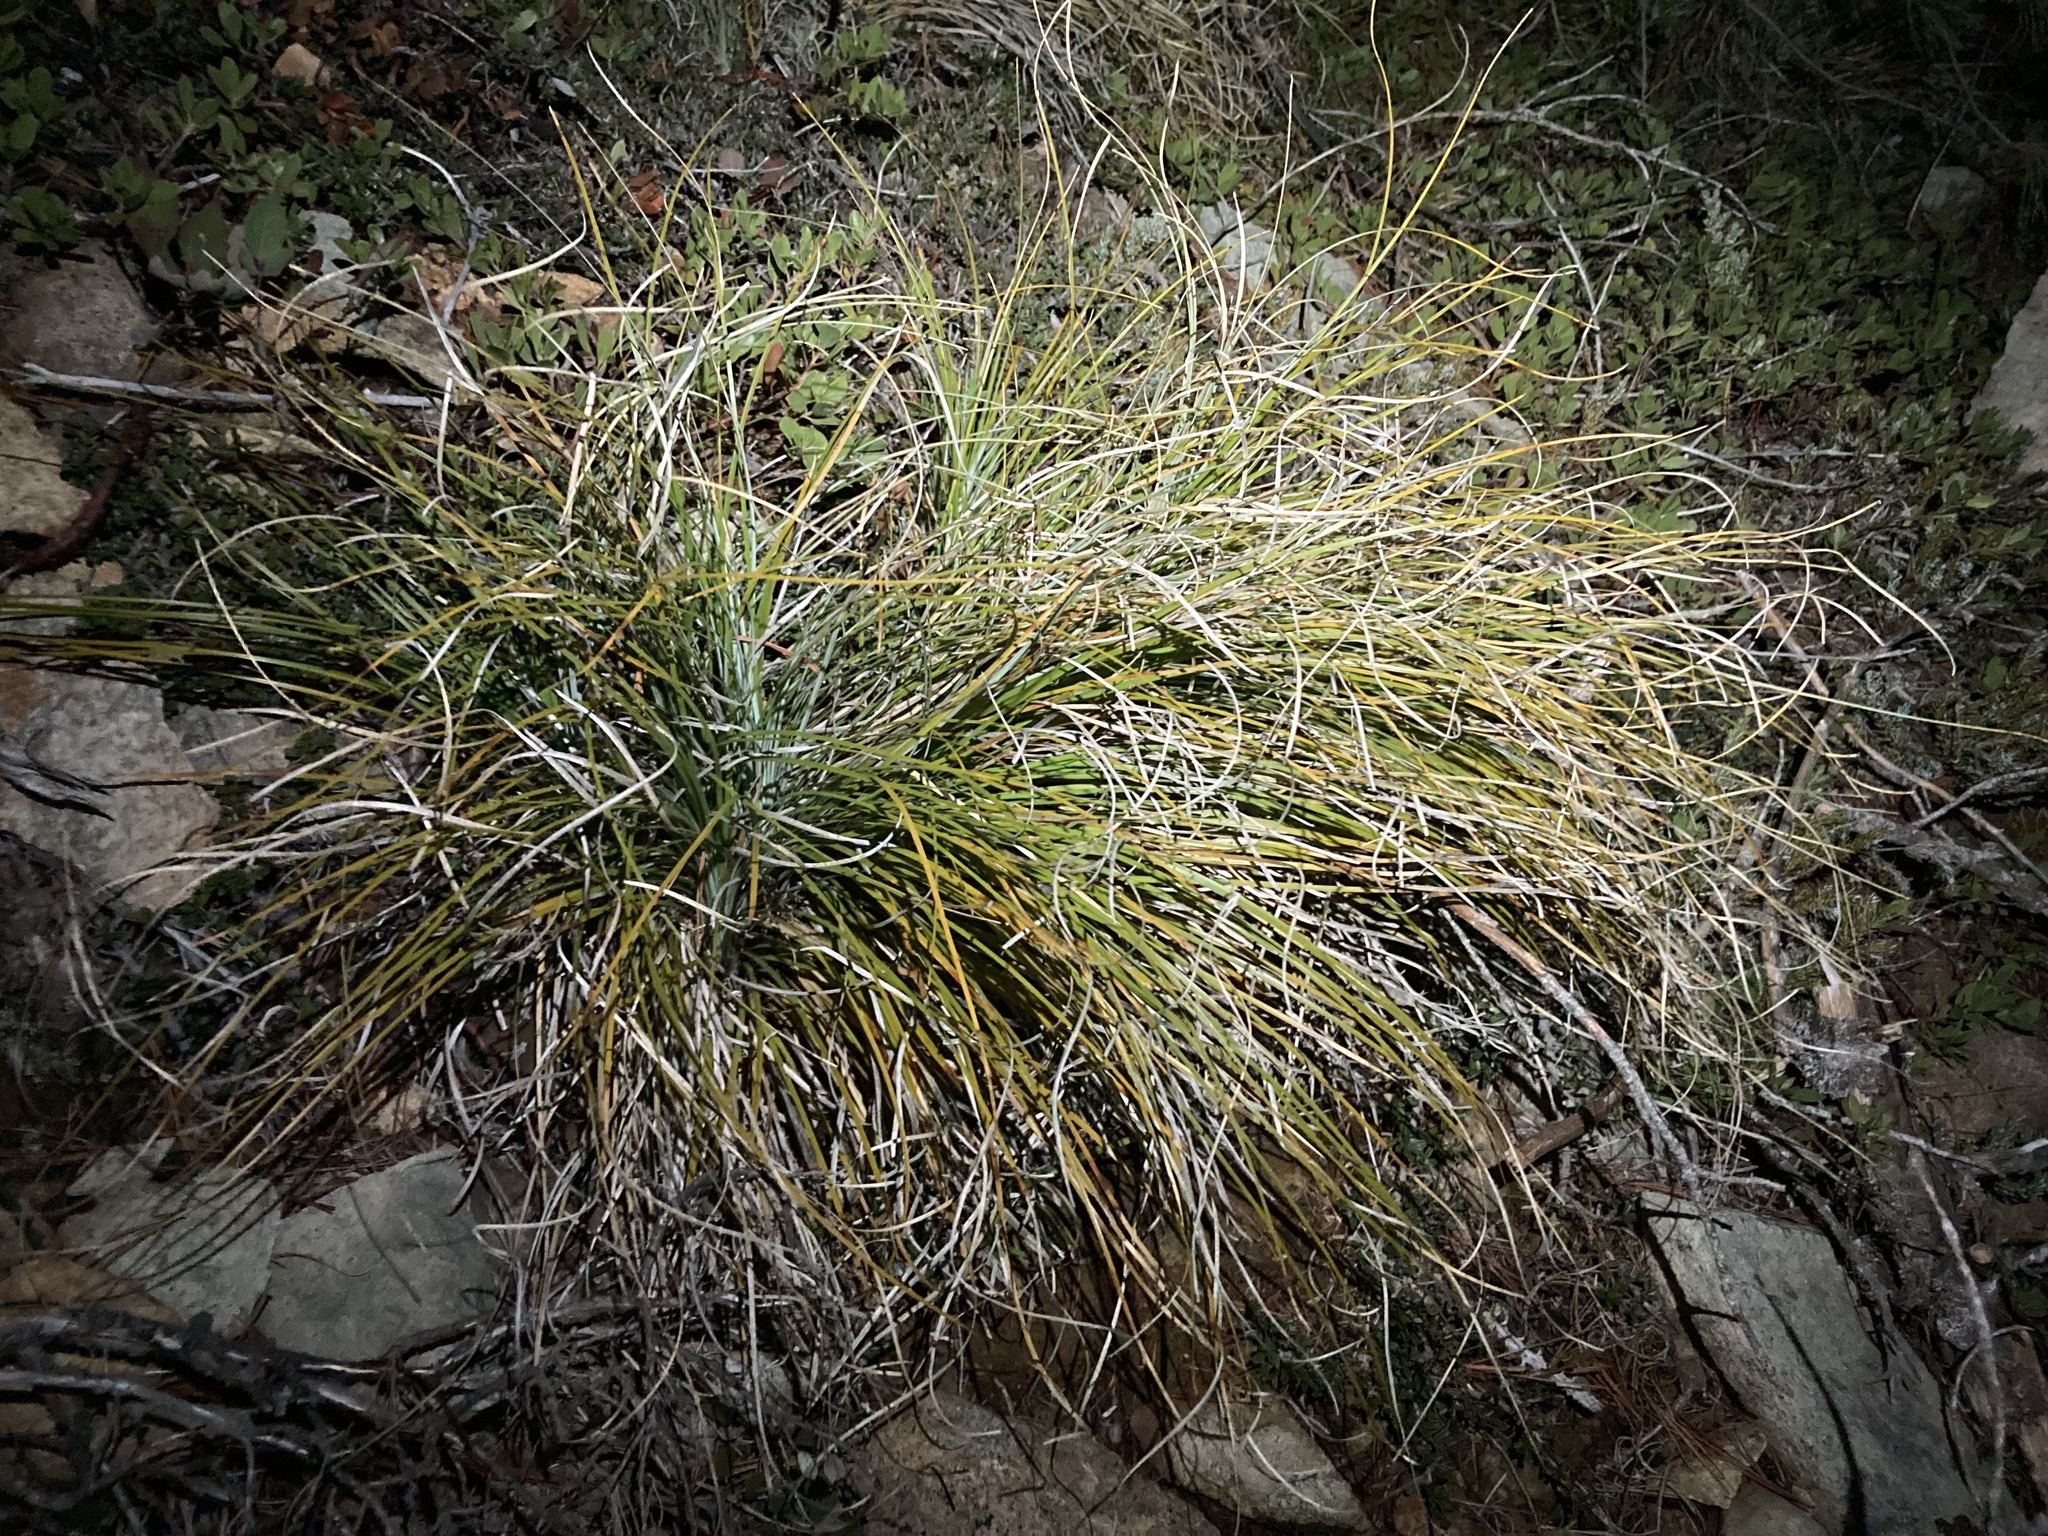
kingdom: Plantae
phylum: Tracheophyta
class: Liliopsida
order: Liliales
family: Melanthiaceae
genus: Xerophyllum
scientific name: Xerophyllum tenax
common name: Bear-grass
